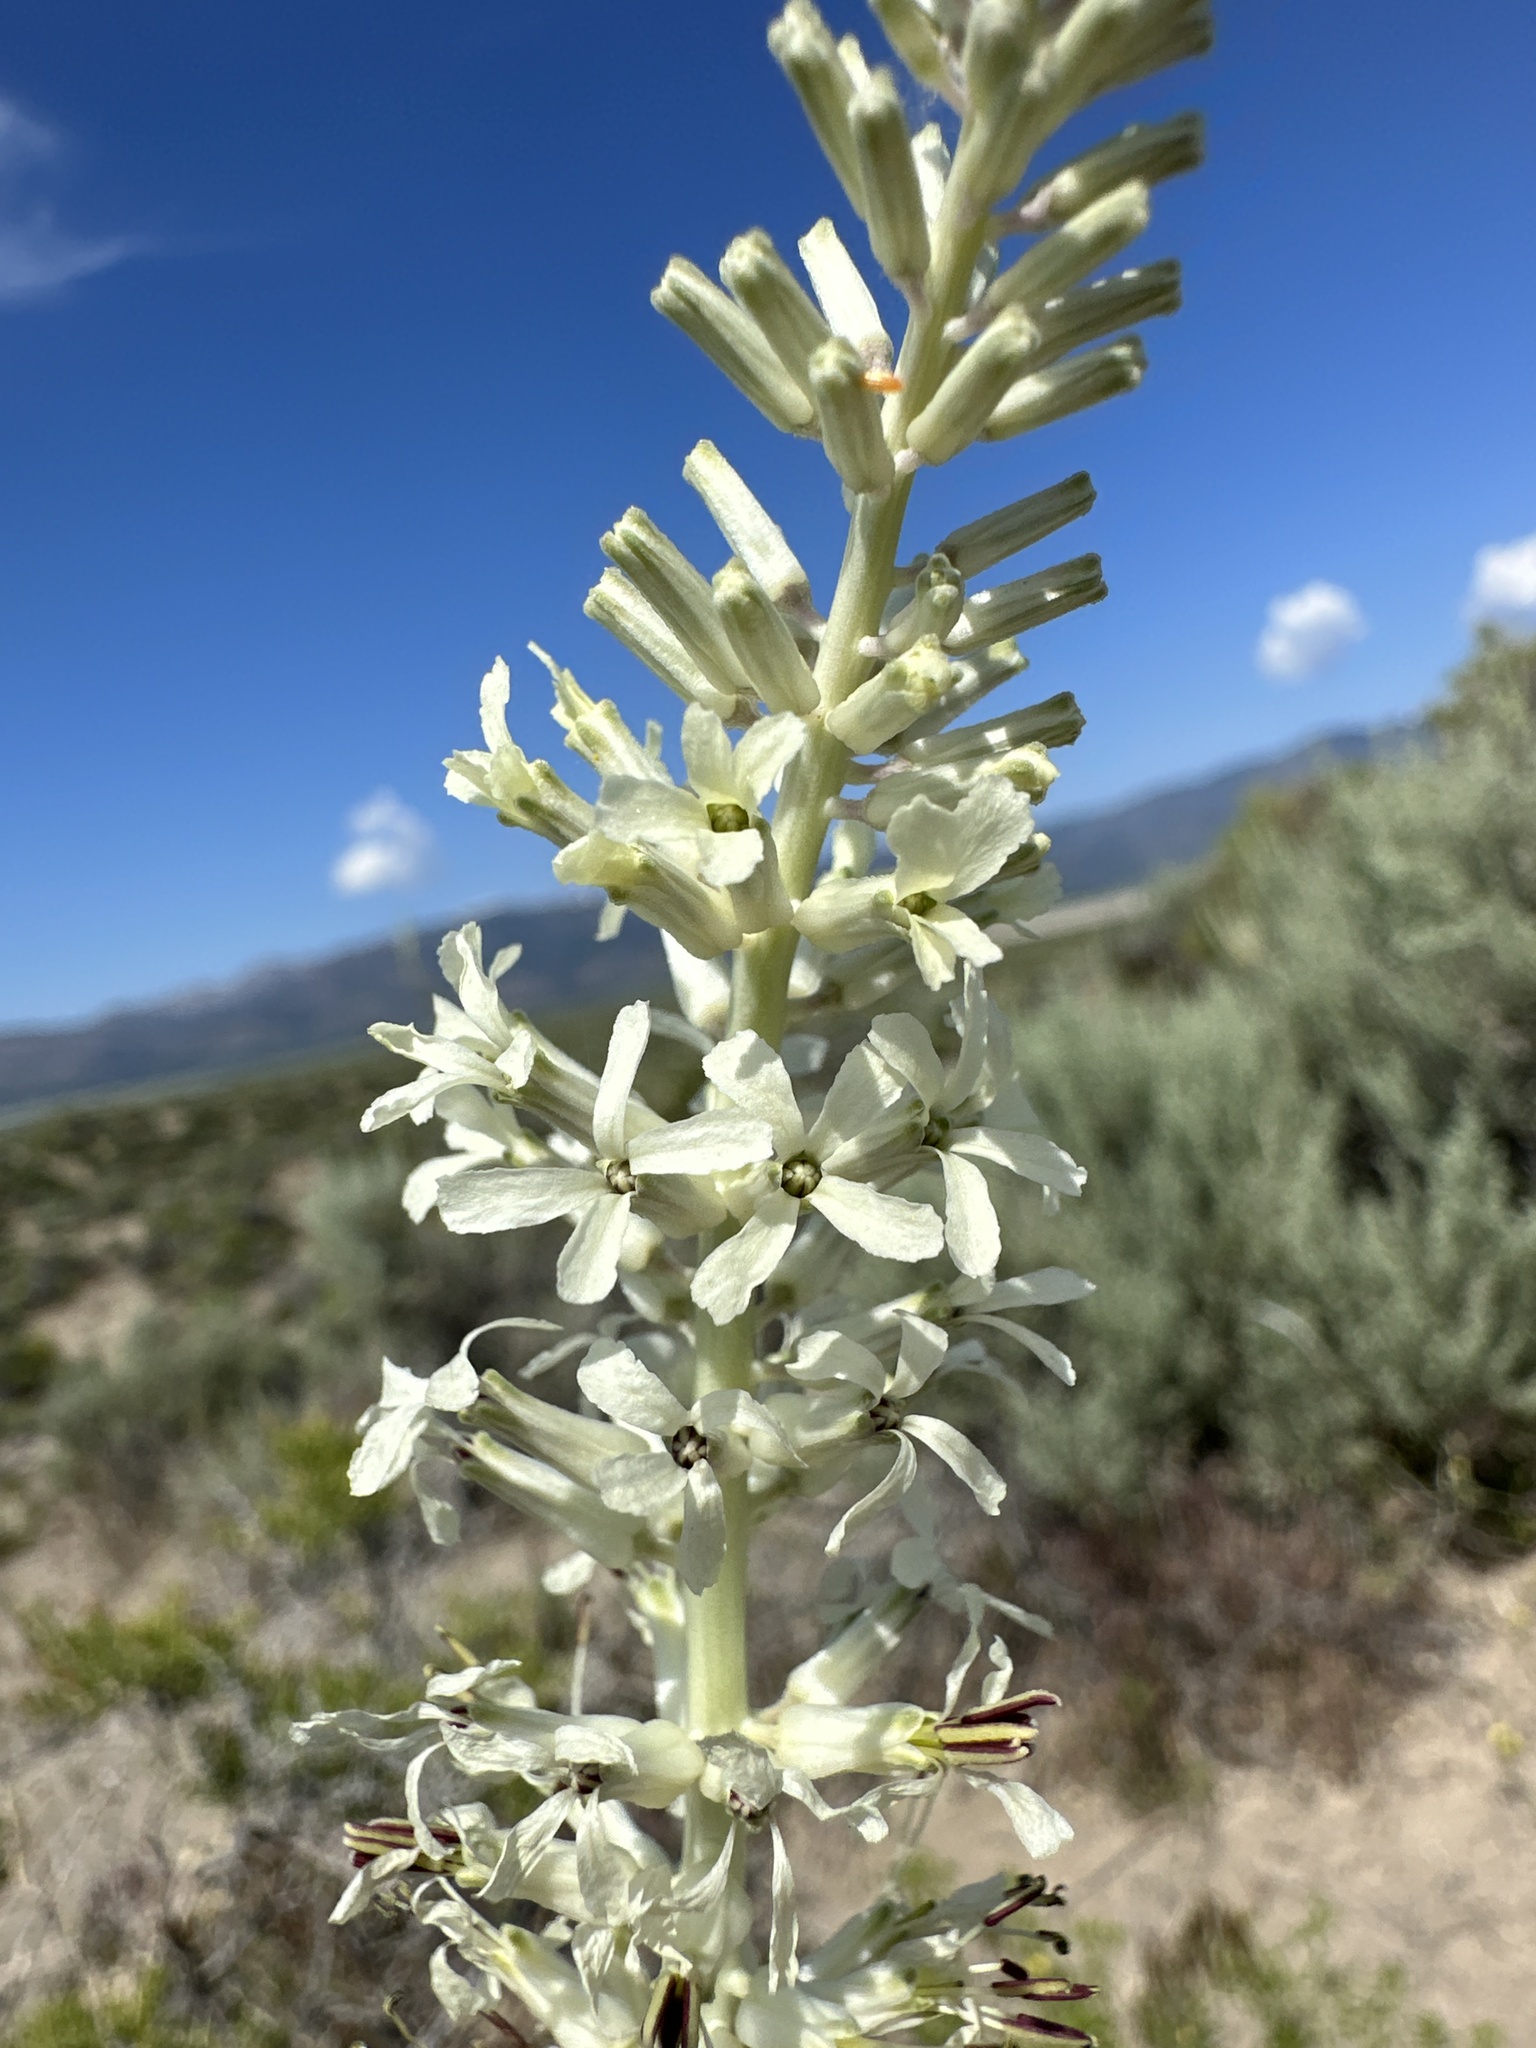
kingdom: Plantae
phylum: Tracheophyta
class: Magnoliopsida
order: Brassicales
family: Brassicaceae
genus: Thelypodium
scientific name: Thelypodium milleflorum
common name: Many-flowered thelypody
